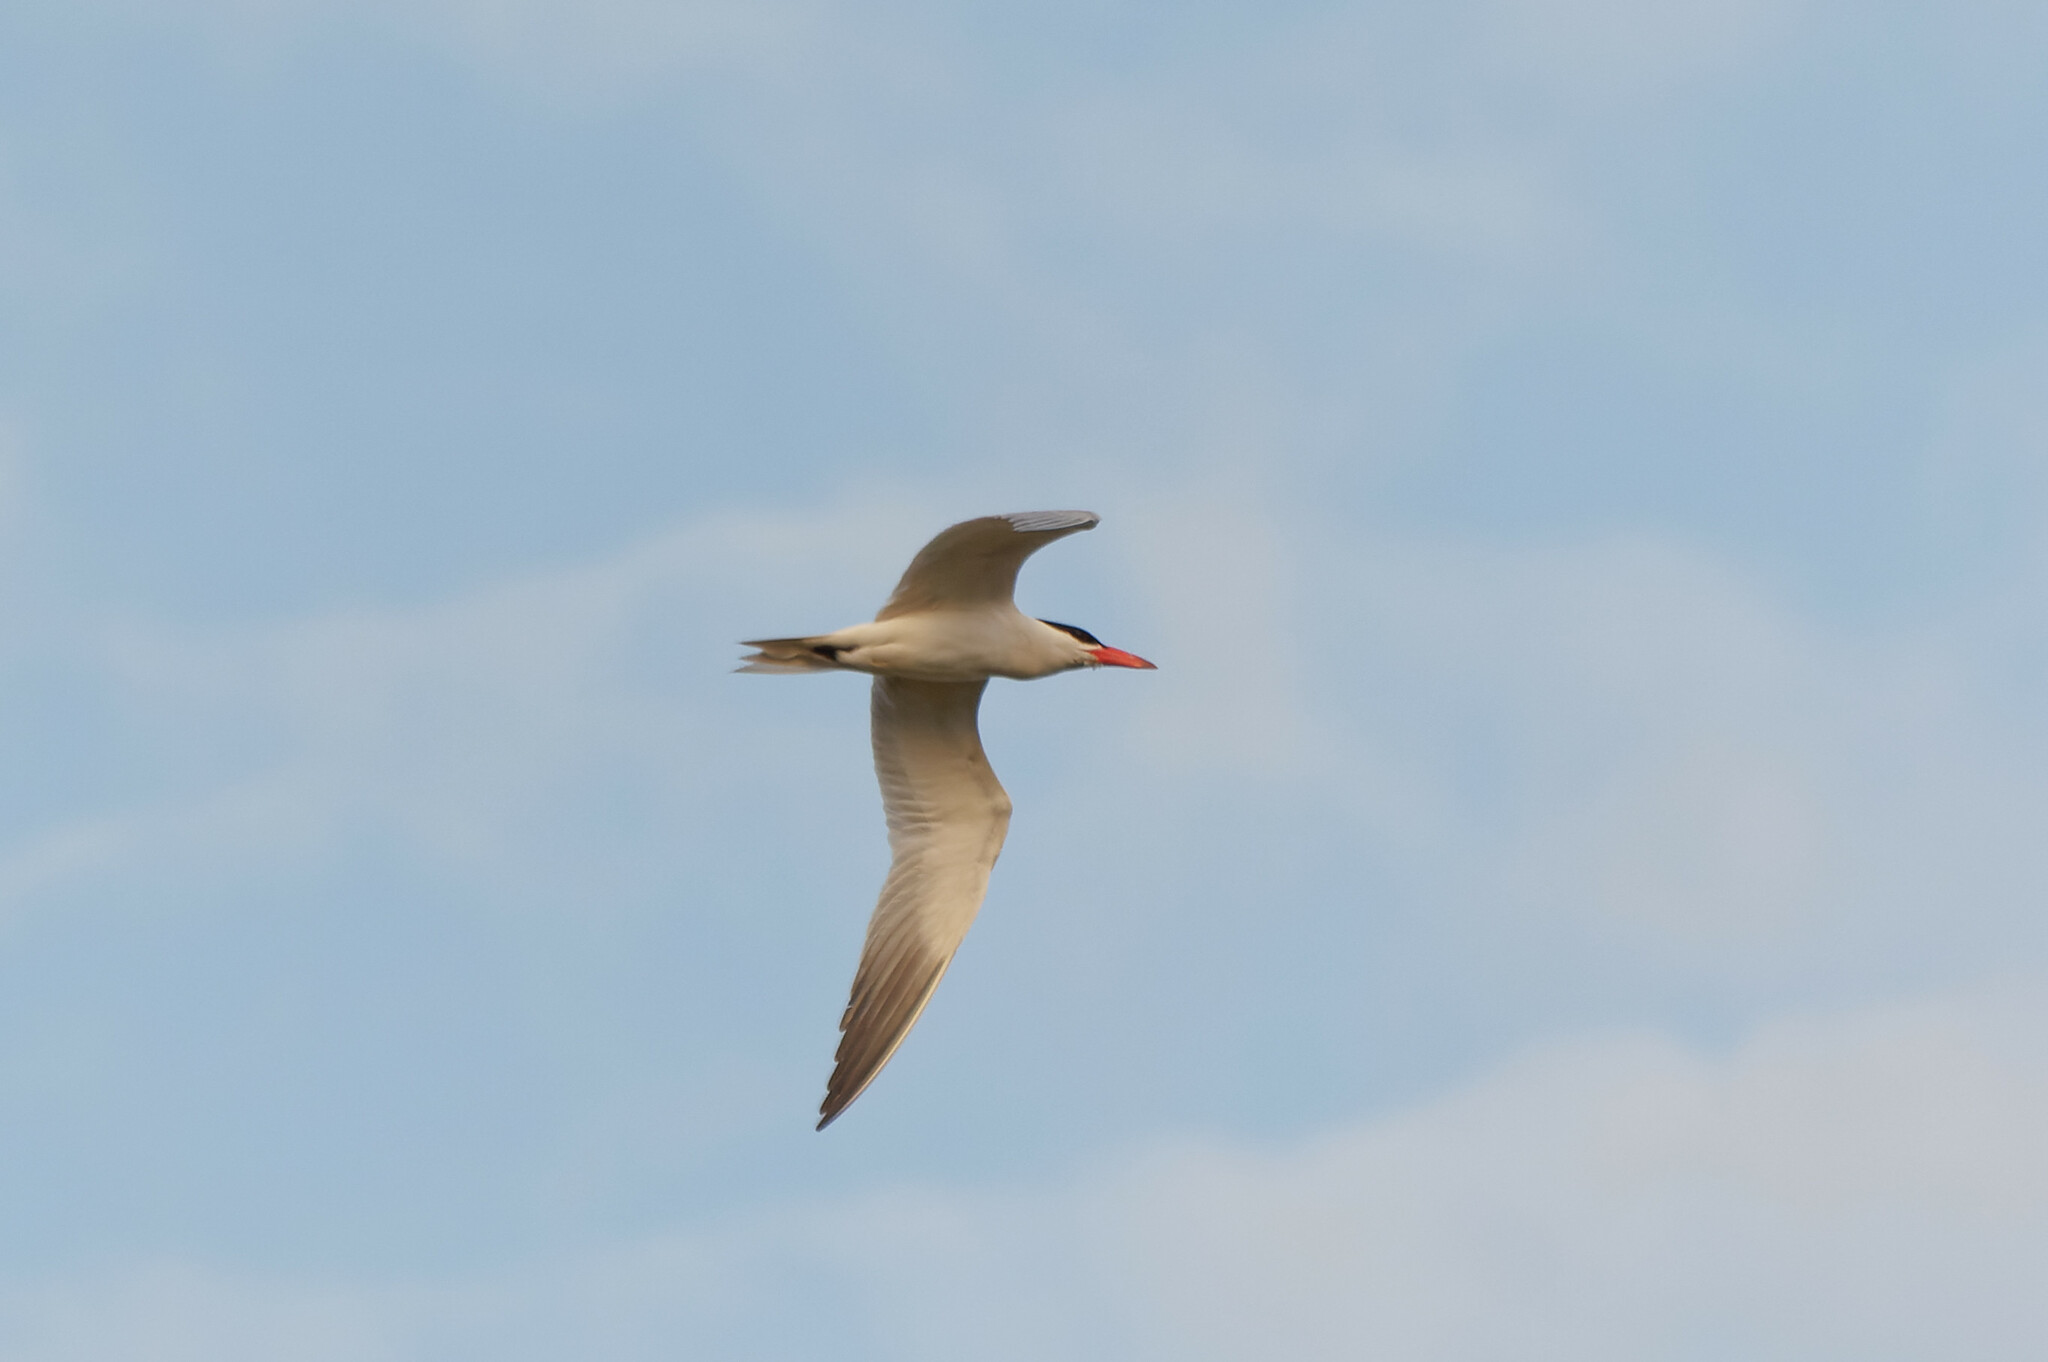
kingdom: Animalia
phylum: Chordata
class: Aves
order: Charadriiformes
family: Laridae
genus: Hydroprogne
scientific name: Hydroprogne caspia
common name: Caspian tern
